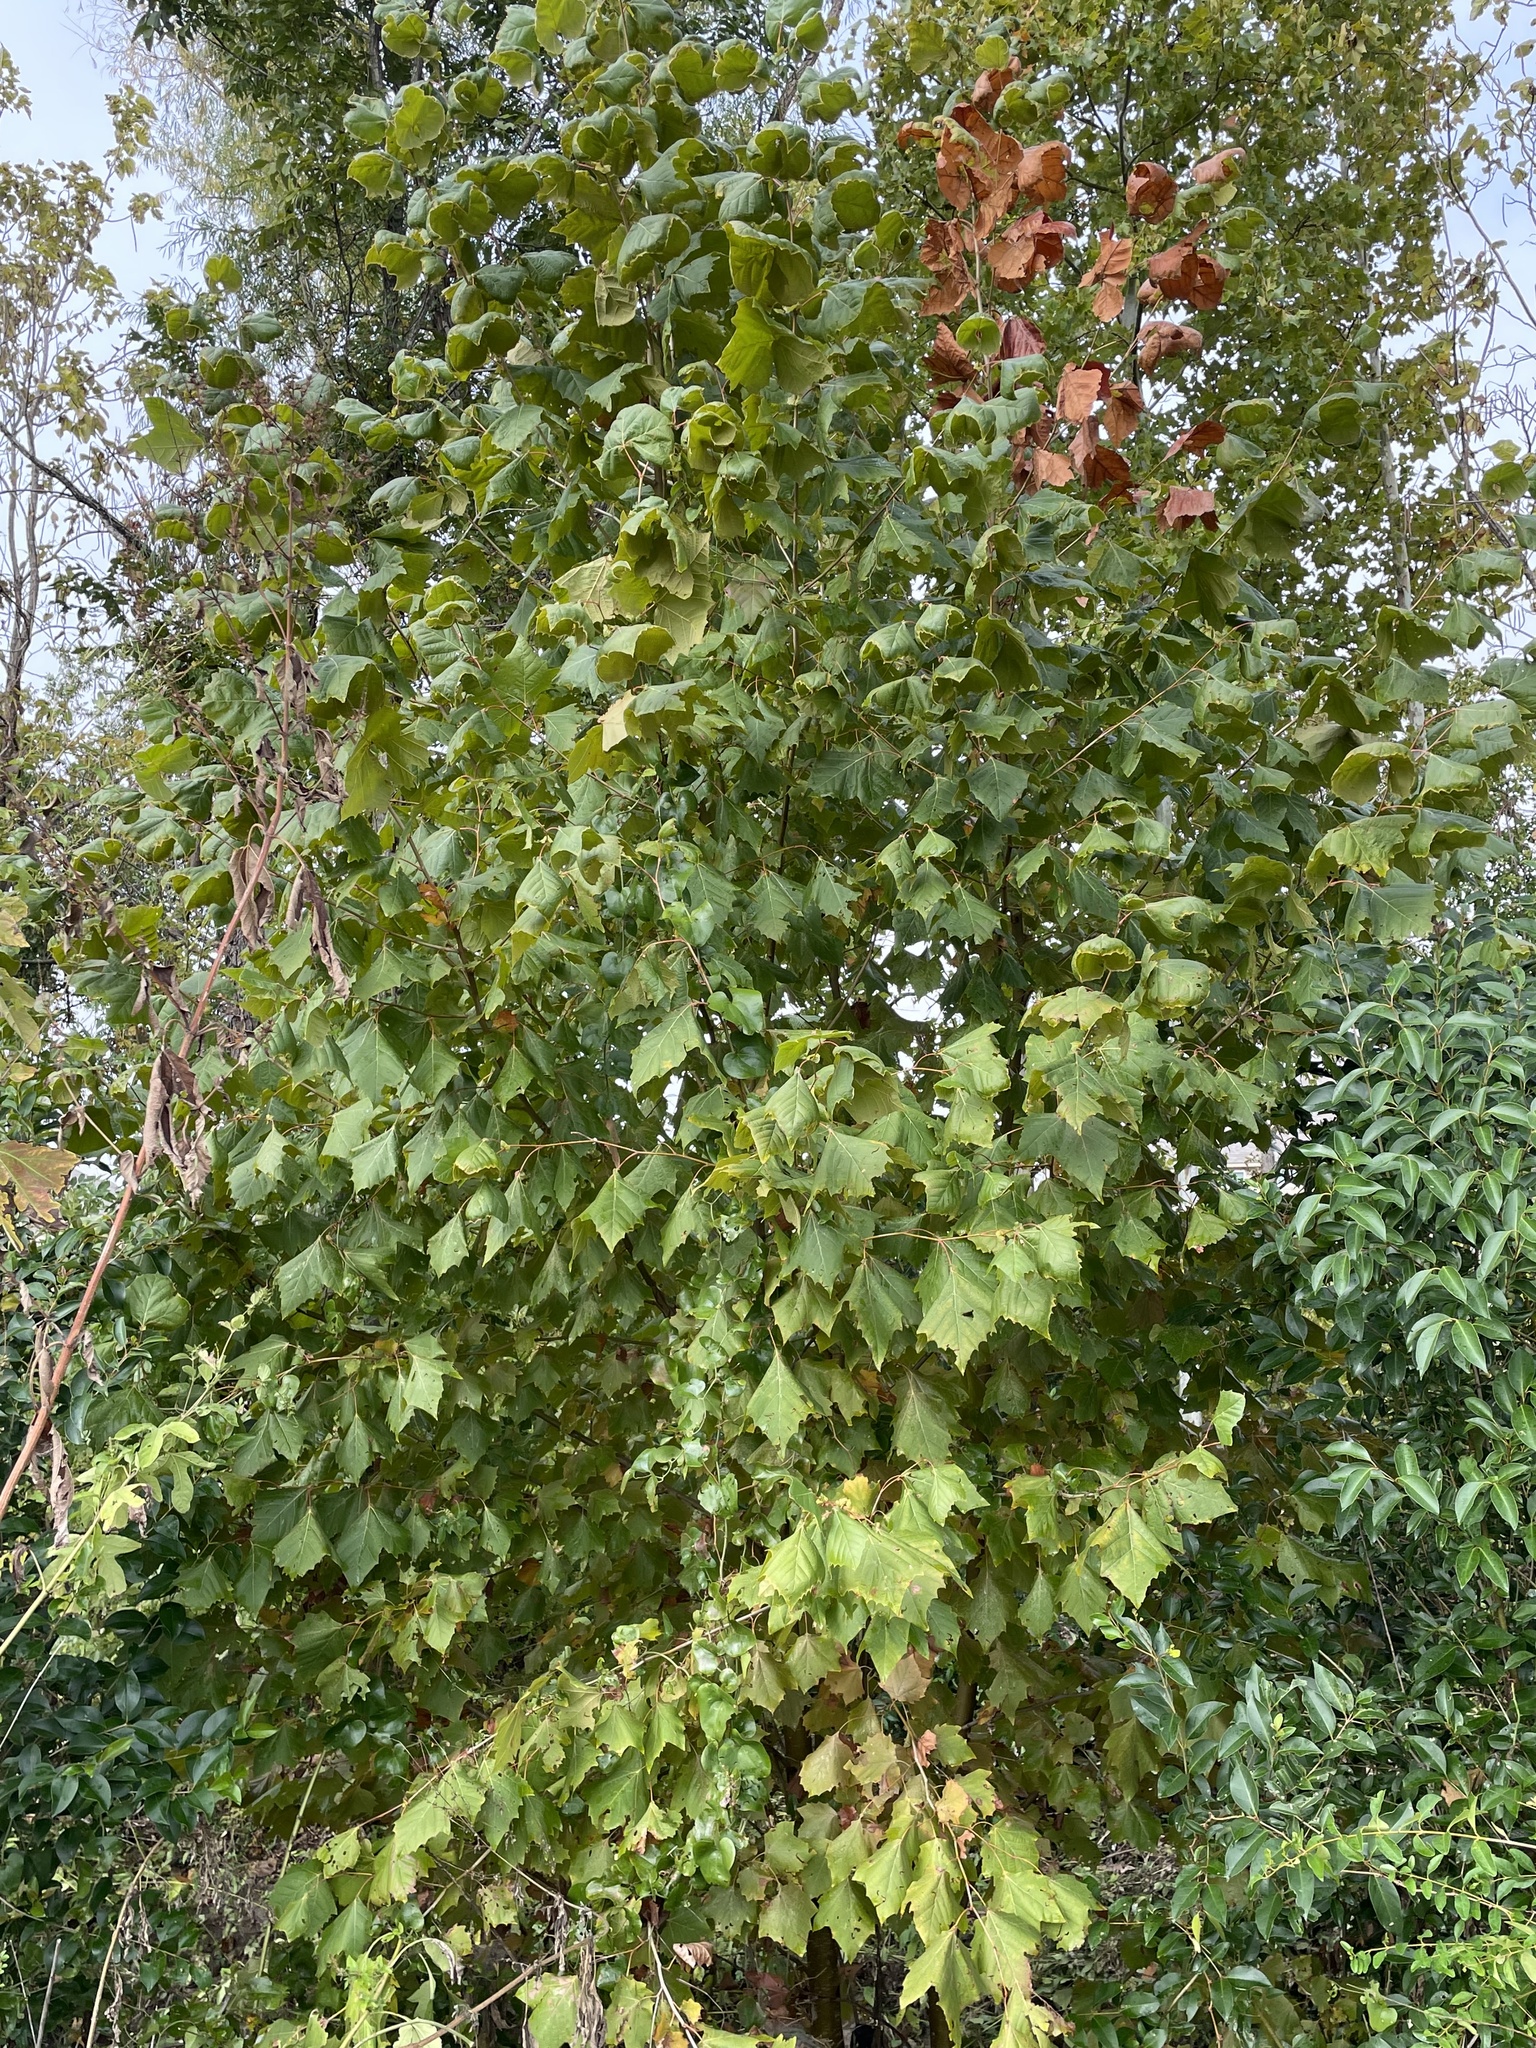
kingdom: Plantae
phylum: Tracheophyta
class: Magnoliopsida
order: Proteales
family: Platanaceae
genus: Platanus
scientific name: Platanus occidentalis
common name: American sycamore
